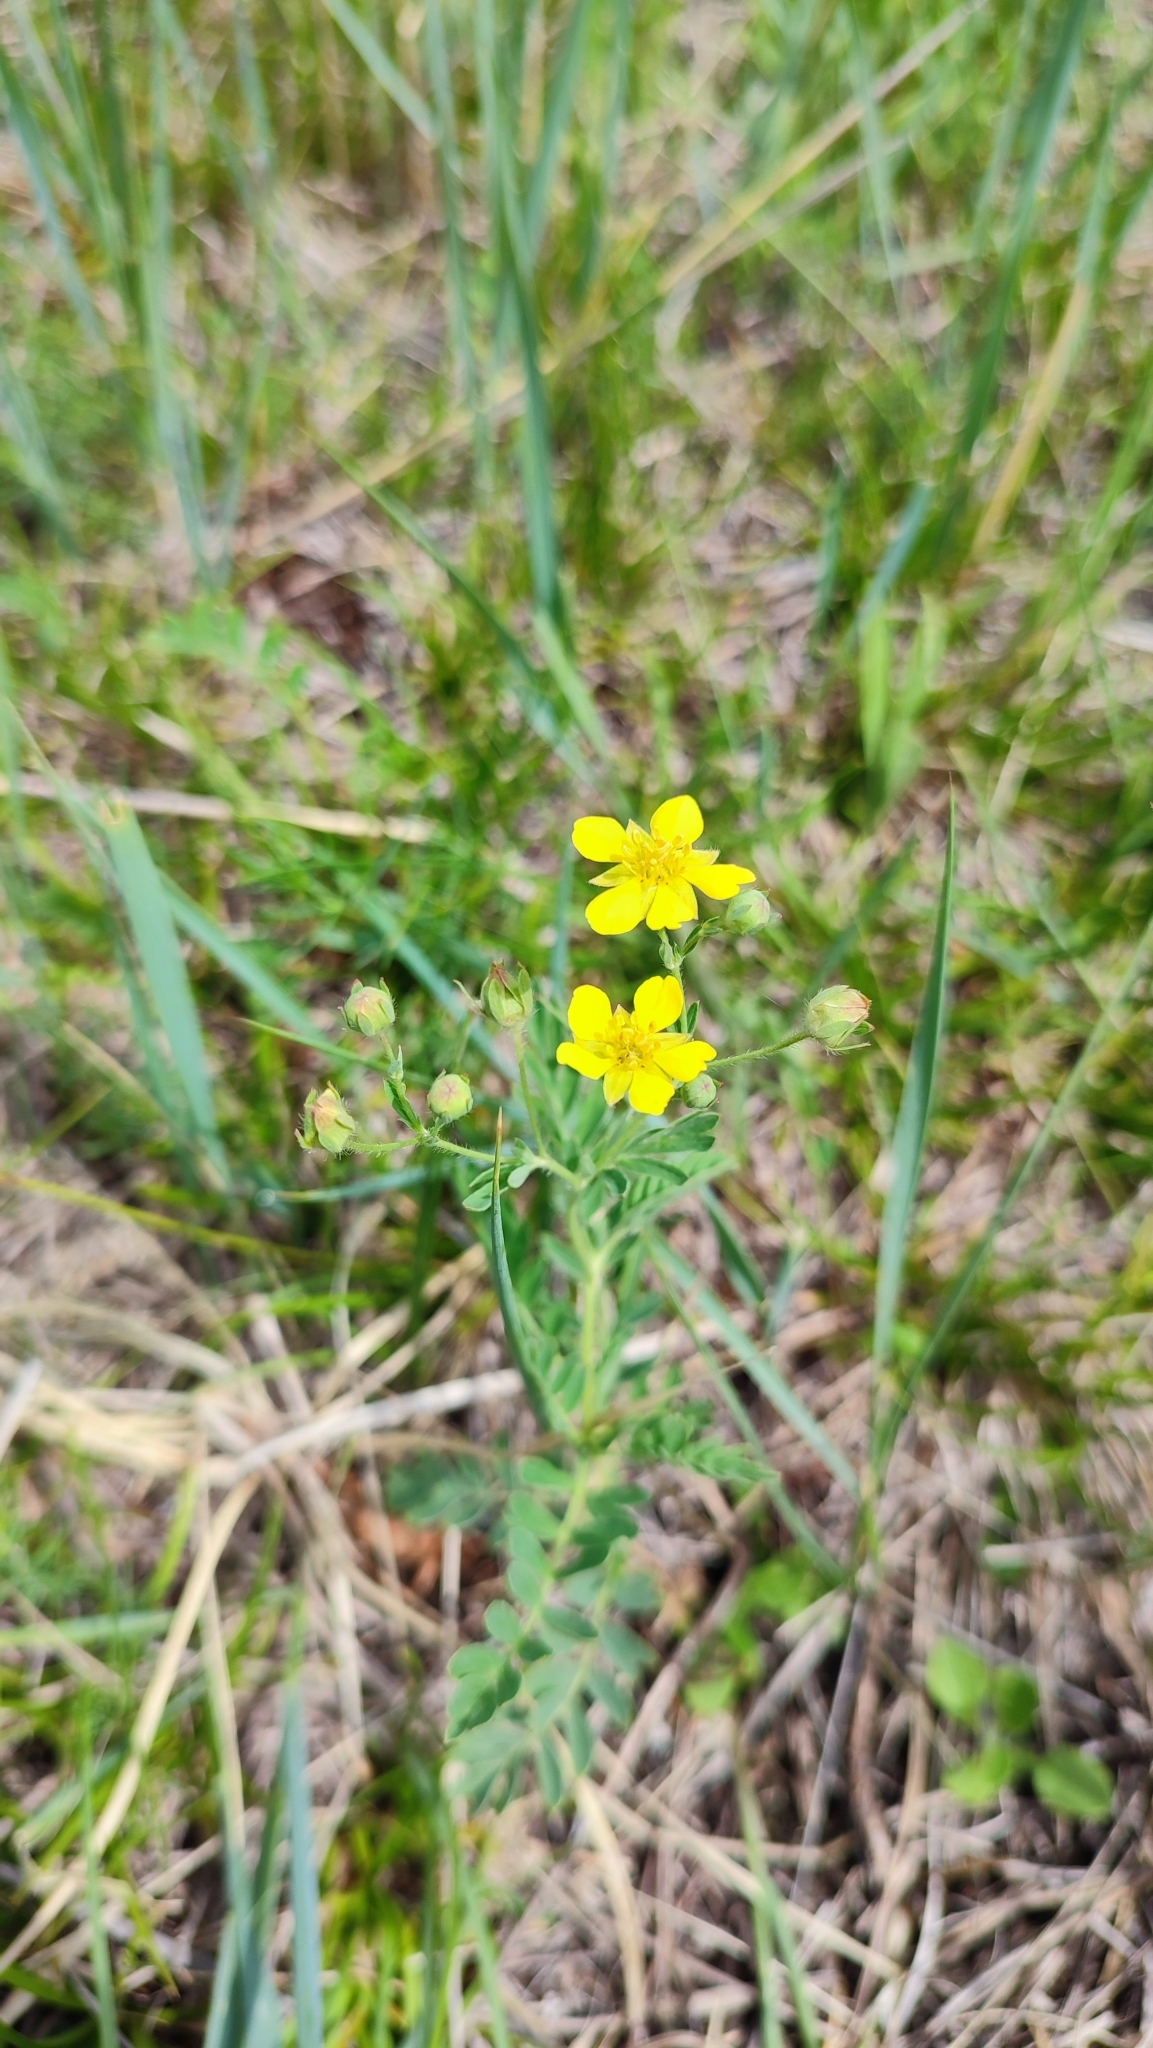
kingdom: Plantae
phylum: Tracheophyta
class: Magnoliopsida
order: Rosales
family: Rosaceae
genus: Sibbaldianthe
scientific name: Sibbaldianthe bifurca
